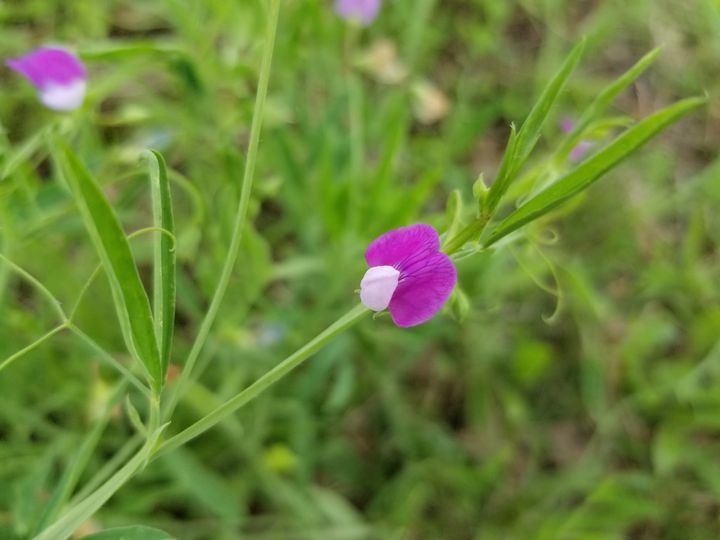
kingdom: Plantae
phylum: Tracheophyta
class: Magnoliopsida
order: Fabales
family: Fabaceae
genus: Lathyrus
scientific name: Lathyrus hirsutus
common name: Hairy vetchling
